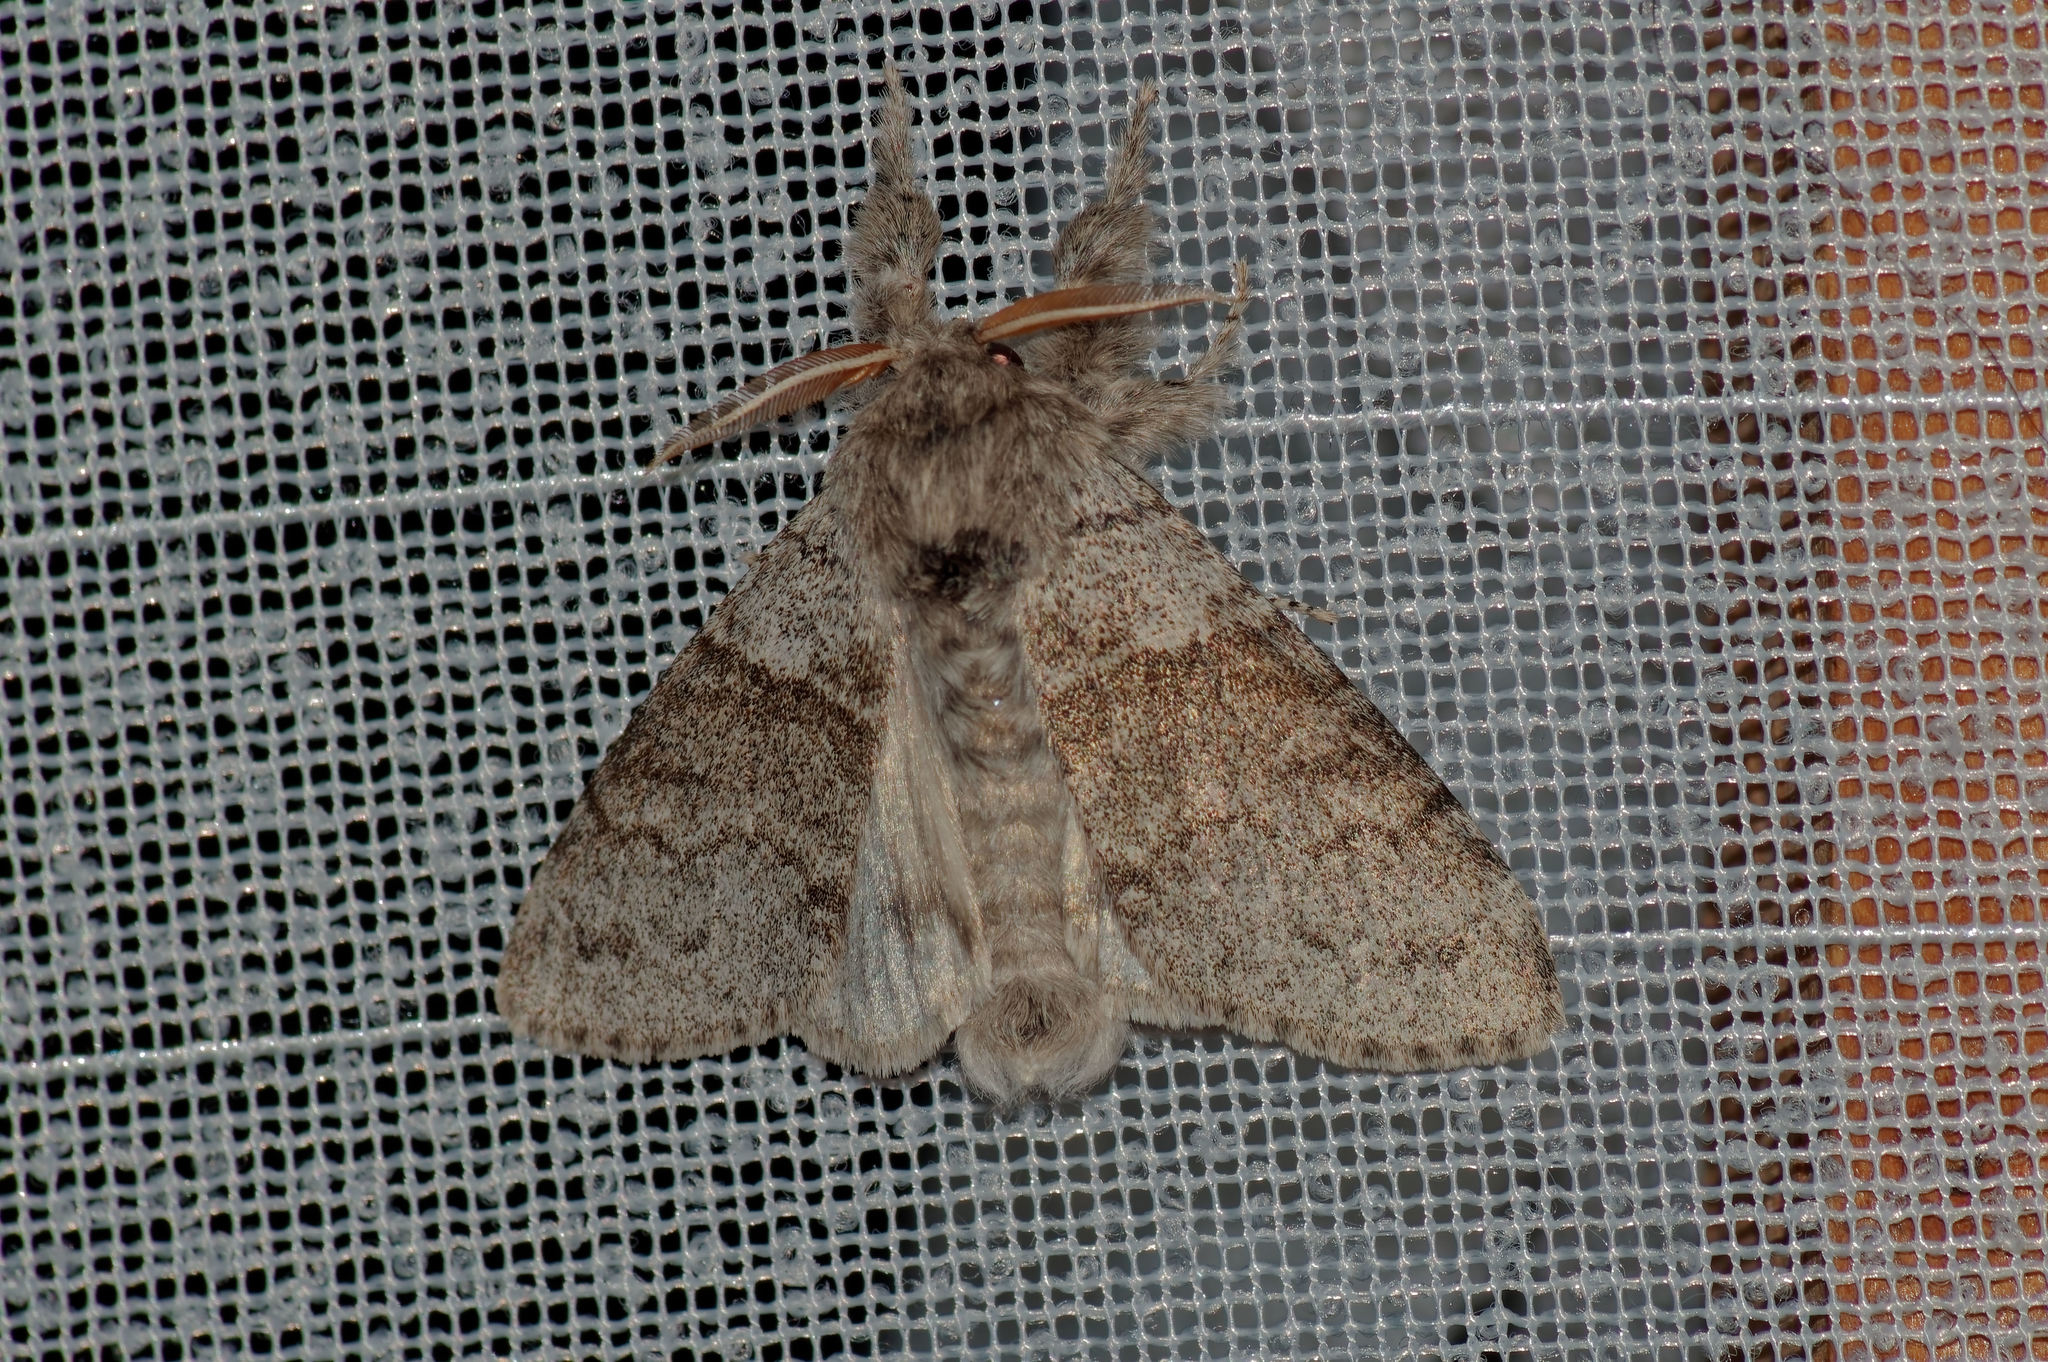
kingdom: Animalia
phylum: Arthropoda
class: Insecta
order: Lepidoptera
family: Erebidae
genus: Calliteara
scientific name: Calliteara pudibunda
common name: Pale tussock
